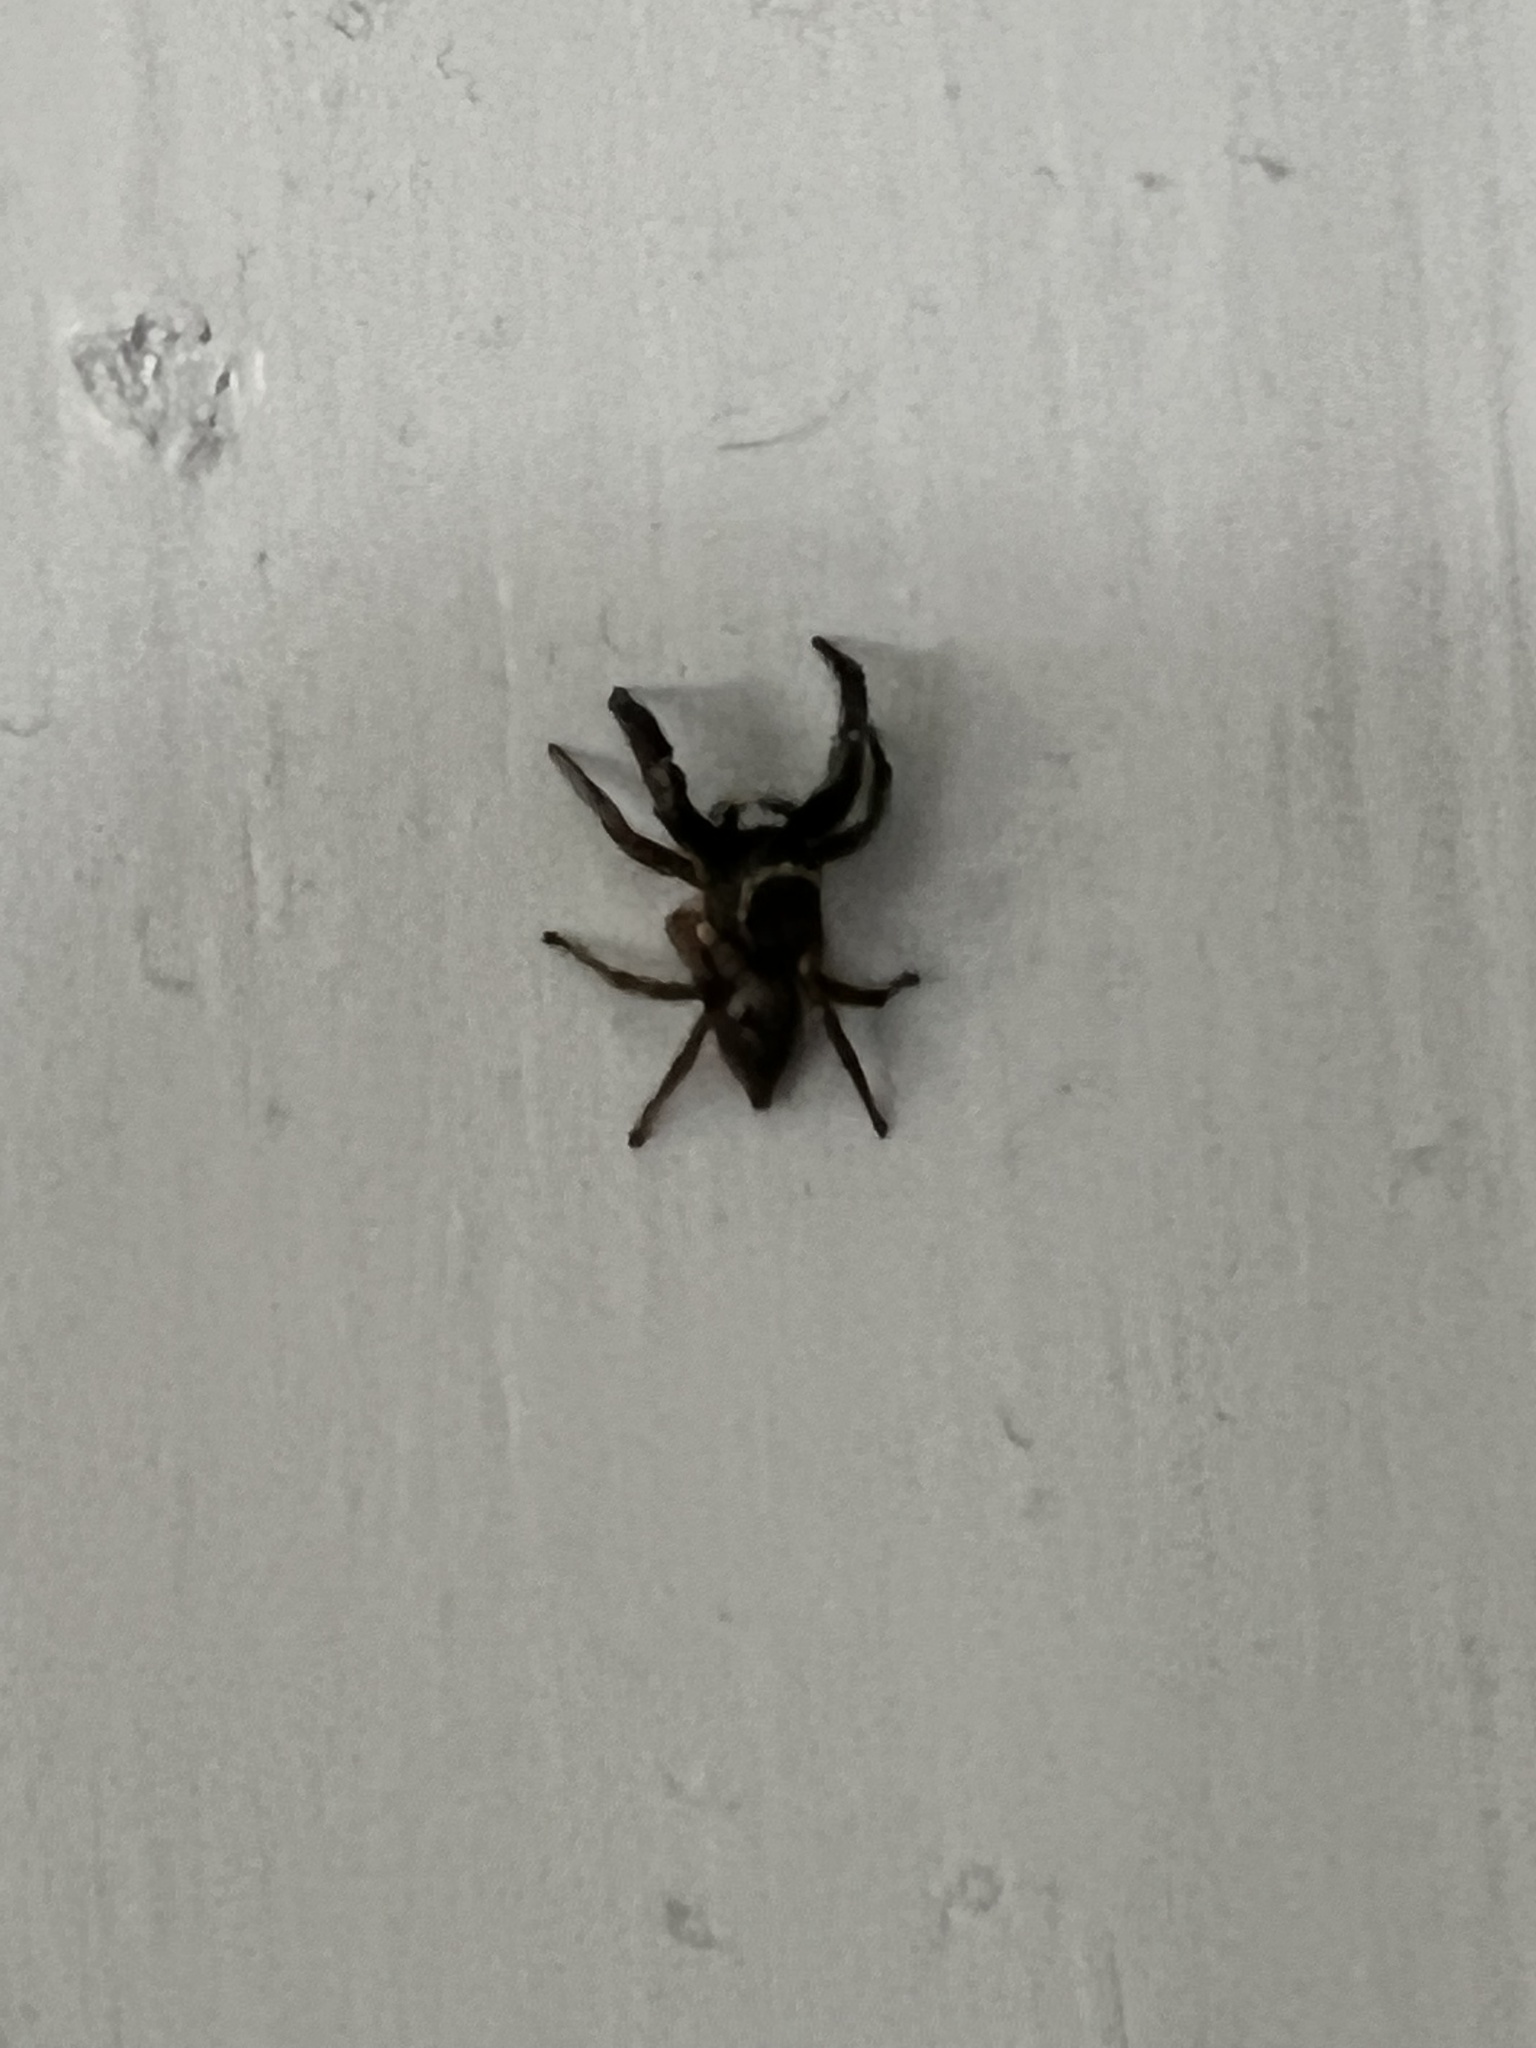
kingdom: Animalia
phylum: Arthropoda
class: Arachnida
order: Araneae
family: Salticidae
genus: Habronattus
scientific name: Habronattus hirsutus
